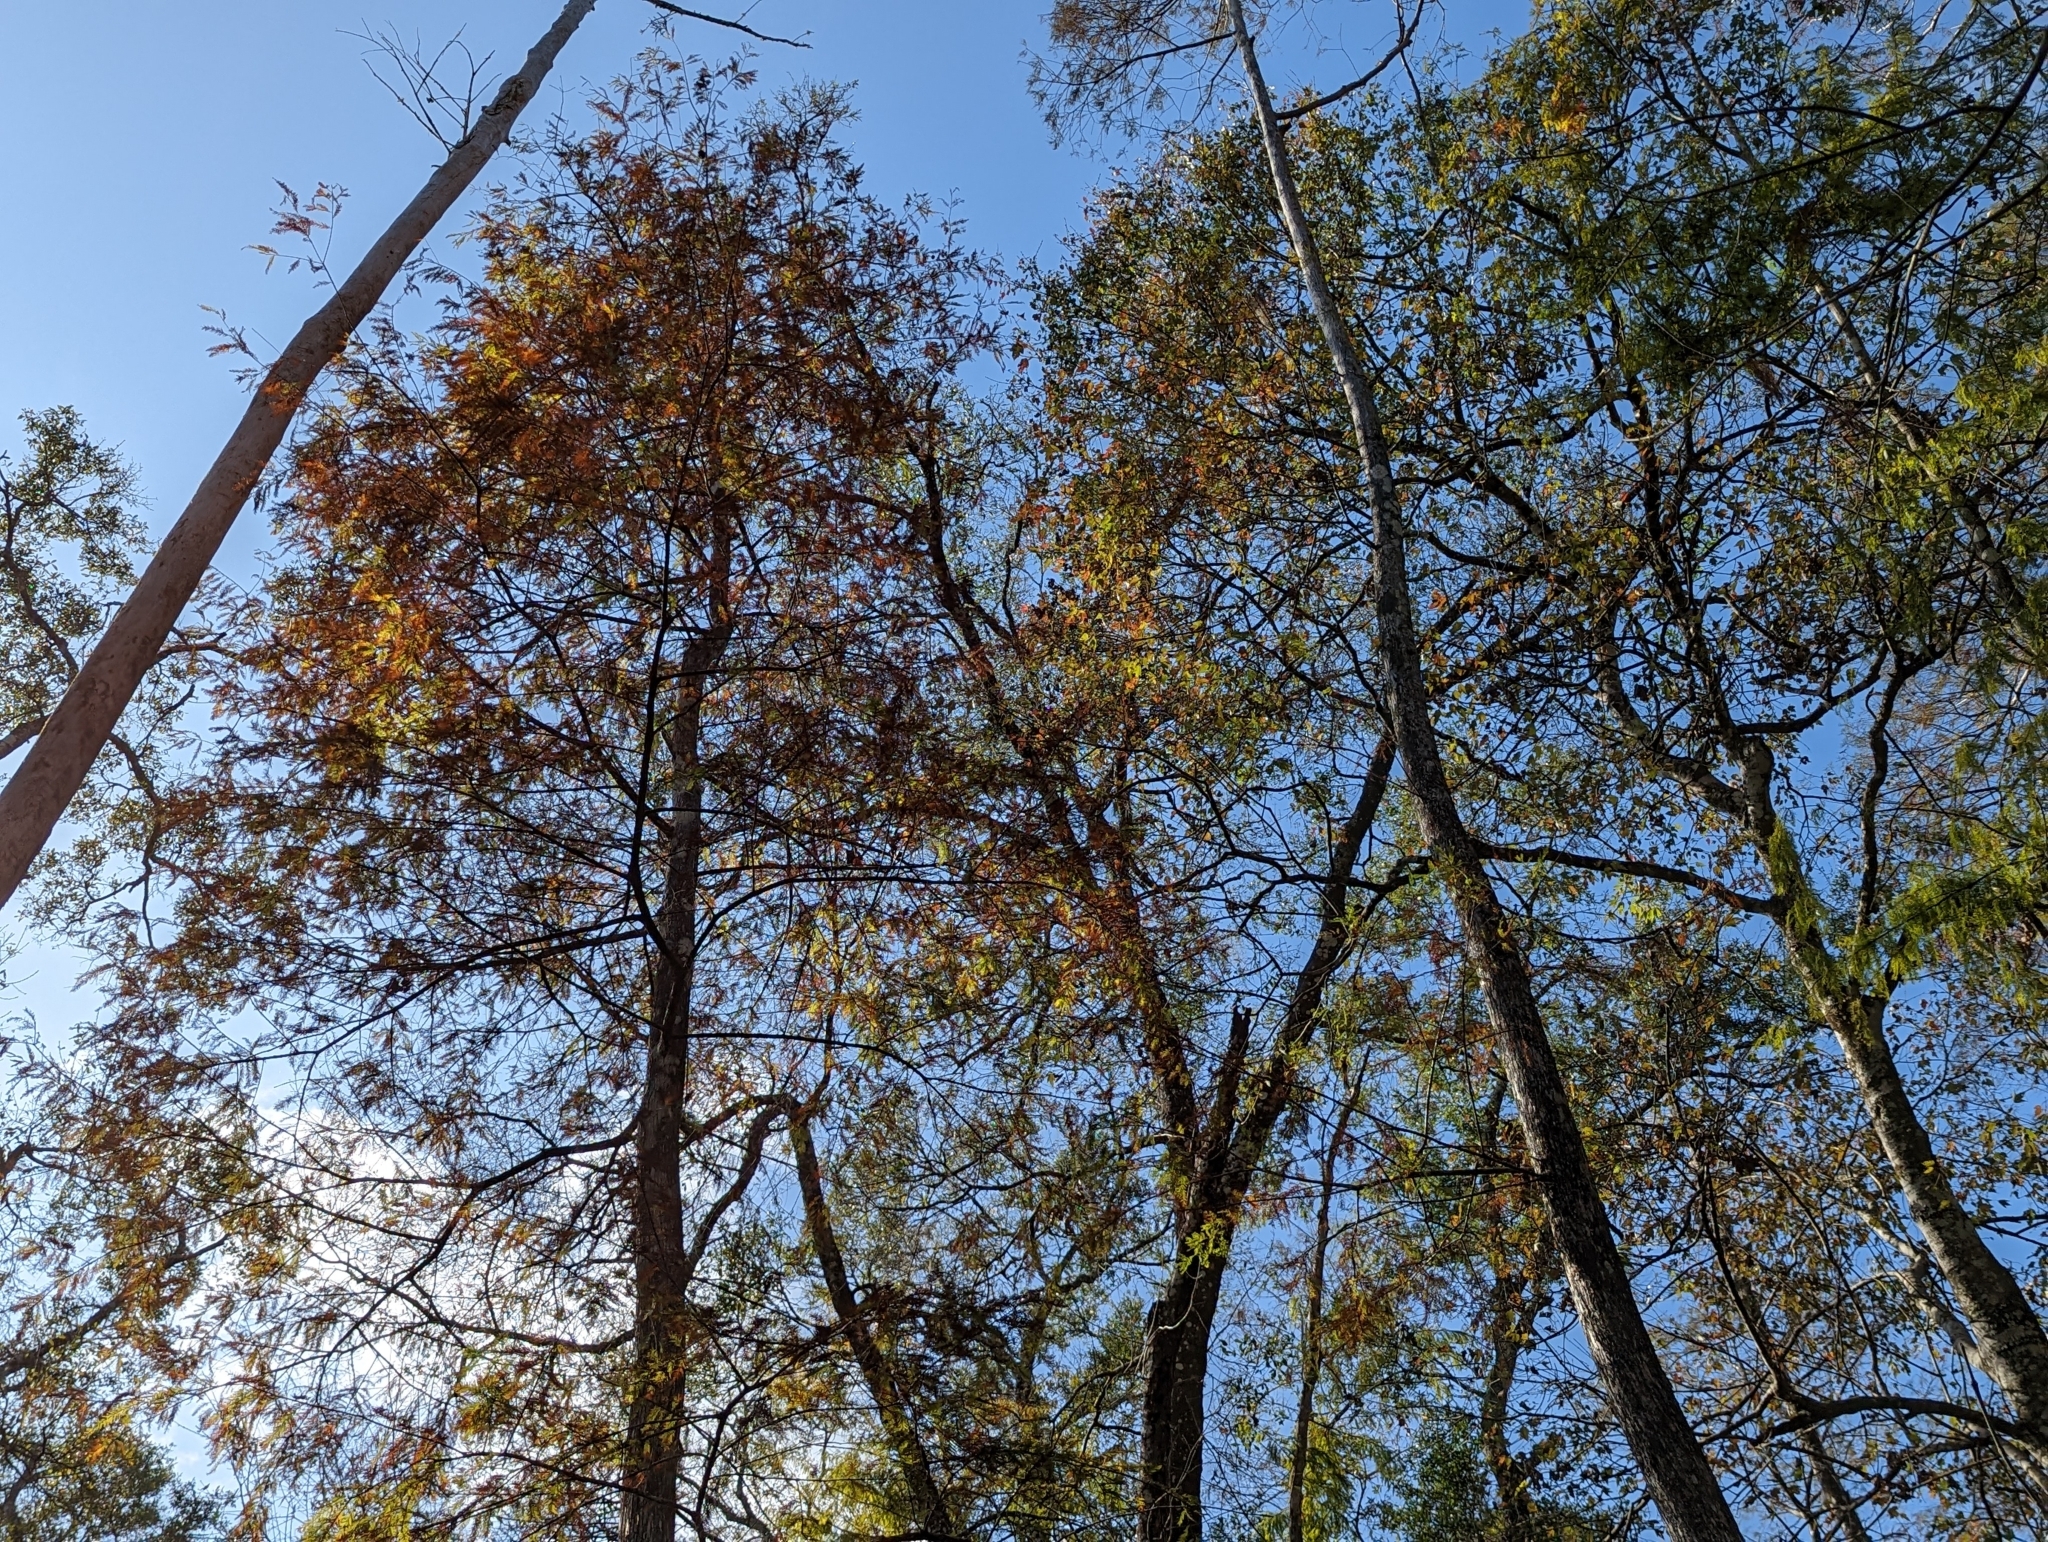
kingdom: Plantae
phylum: Tracheophyta
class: Pinopsida
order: Pinales
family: Cupressaceae
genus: Taxodium
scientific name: Taxodium distichum
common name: Bald cypress
